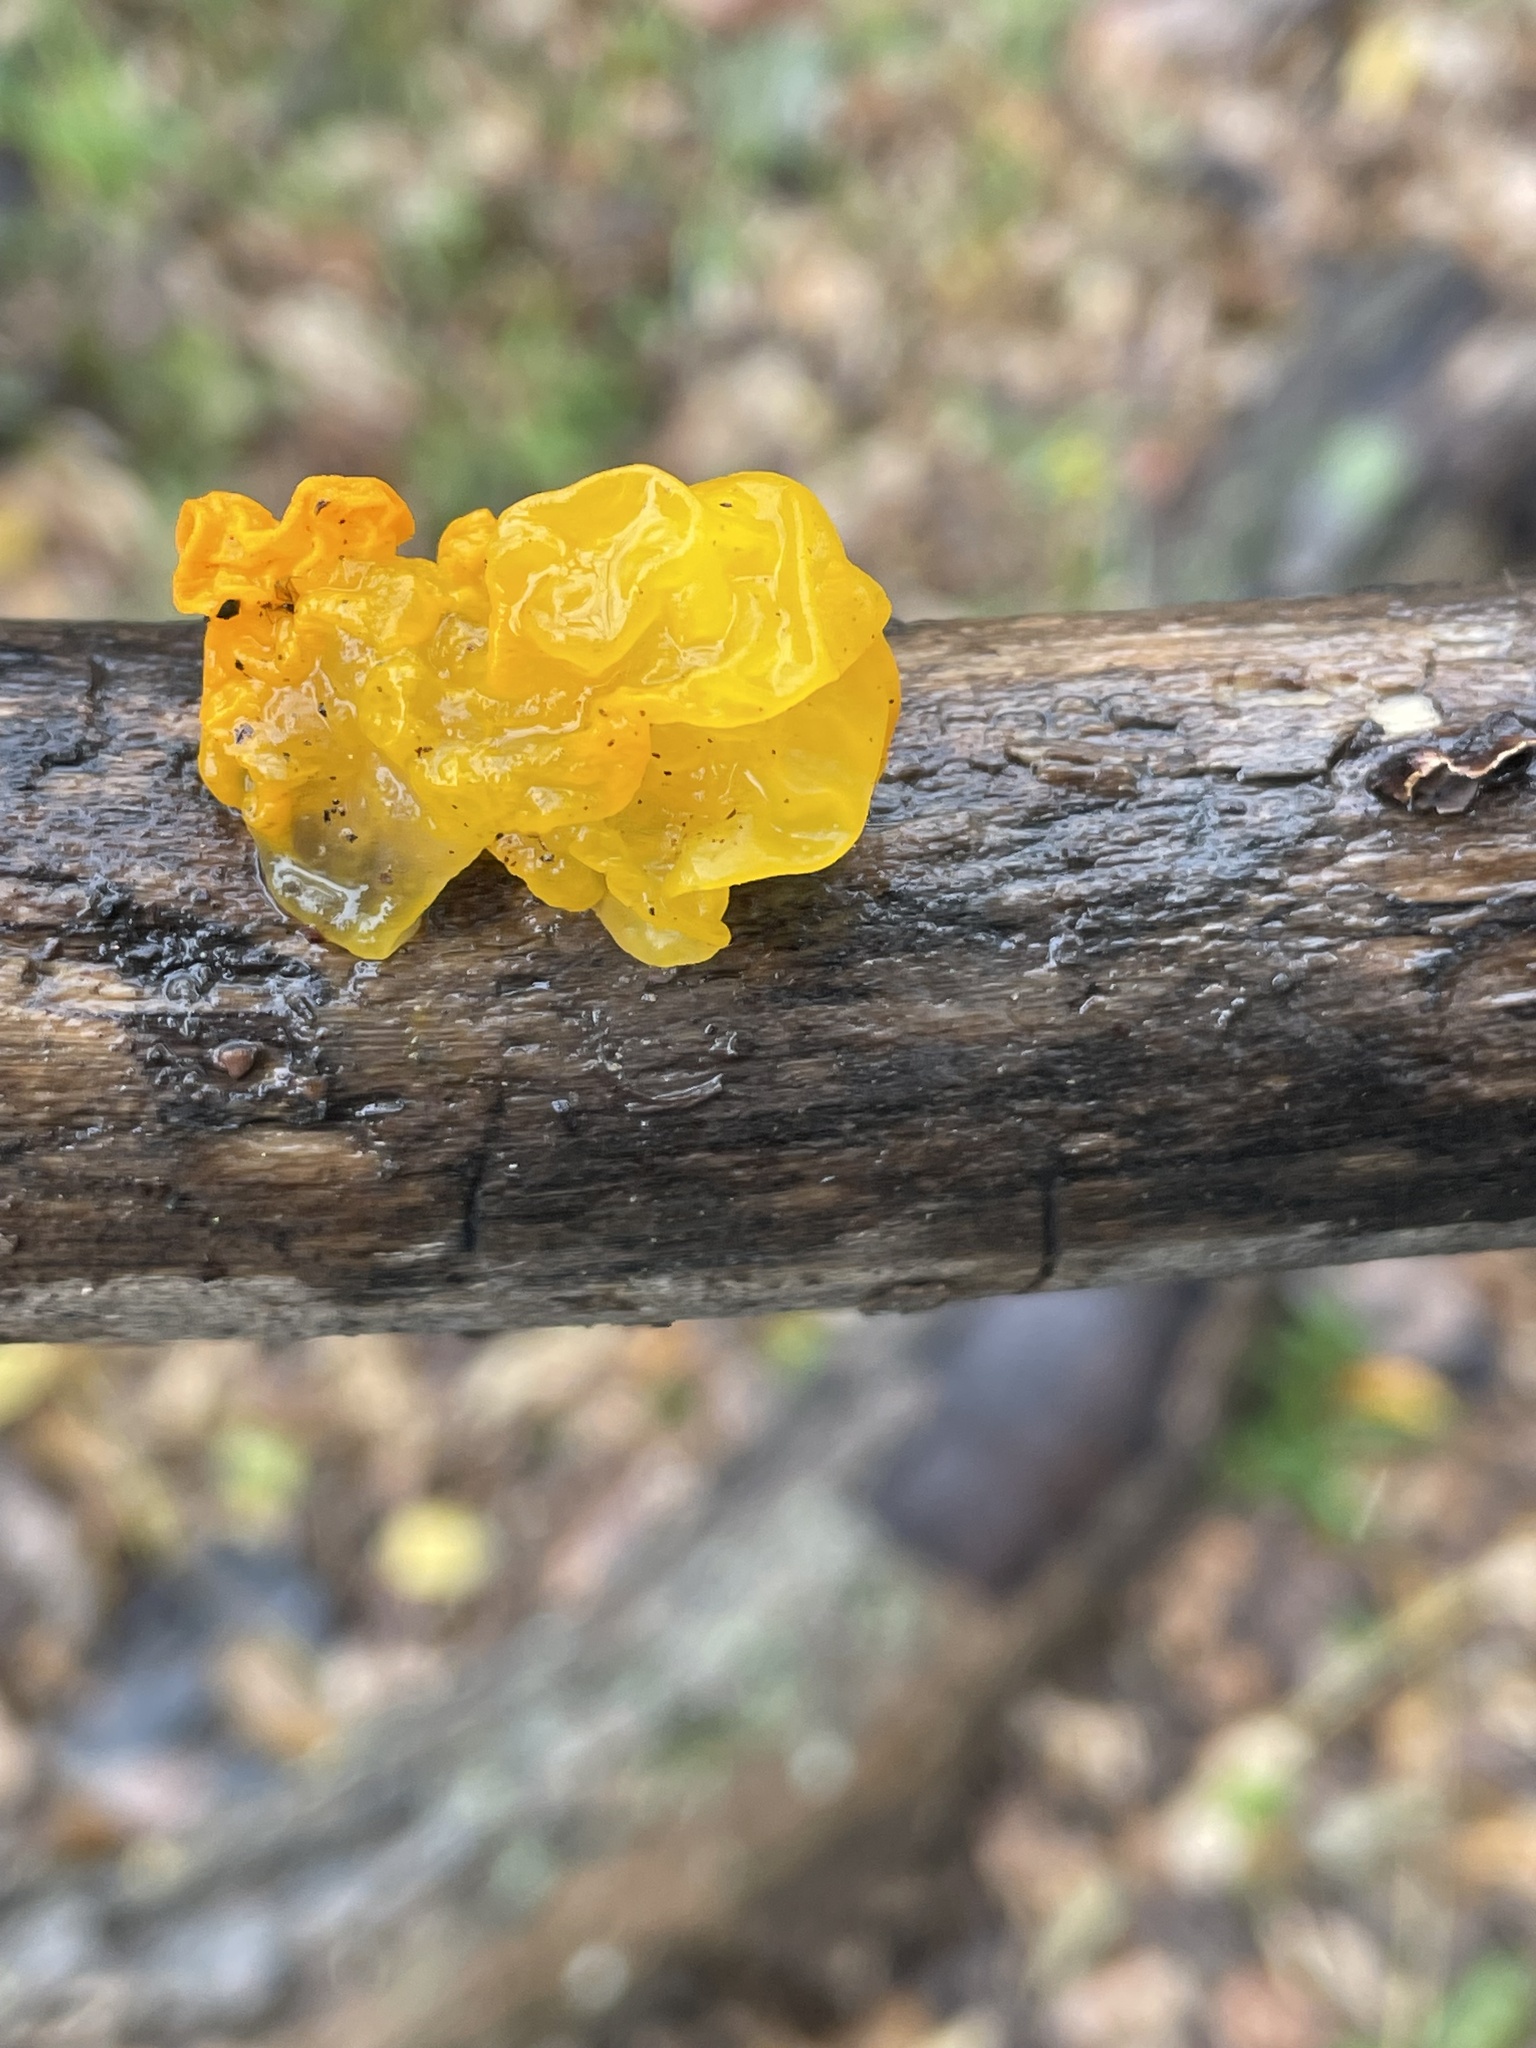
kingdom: Fungi
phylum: Basidiomycota
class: Tremellomycetes
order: Tremellales
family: Tremellaceae
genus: Tremella
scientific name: Tremella mesenterica
